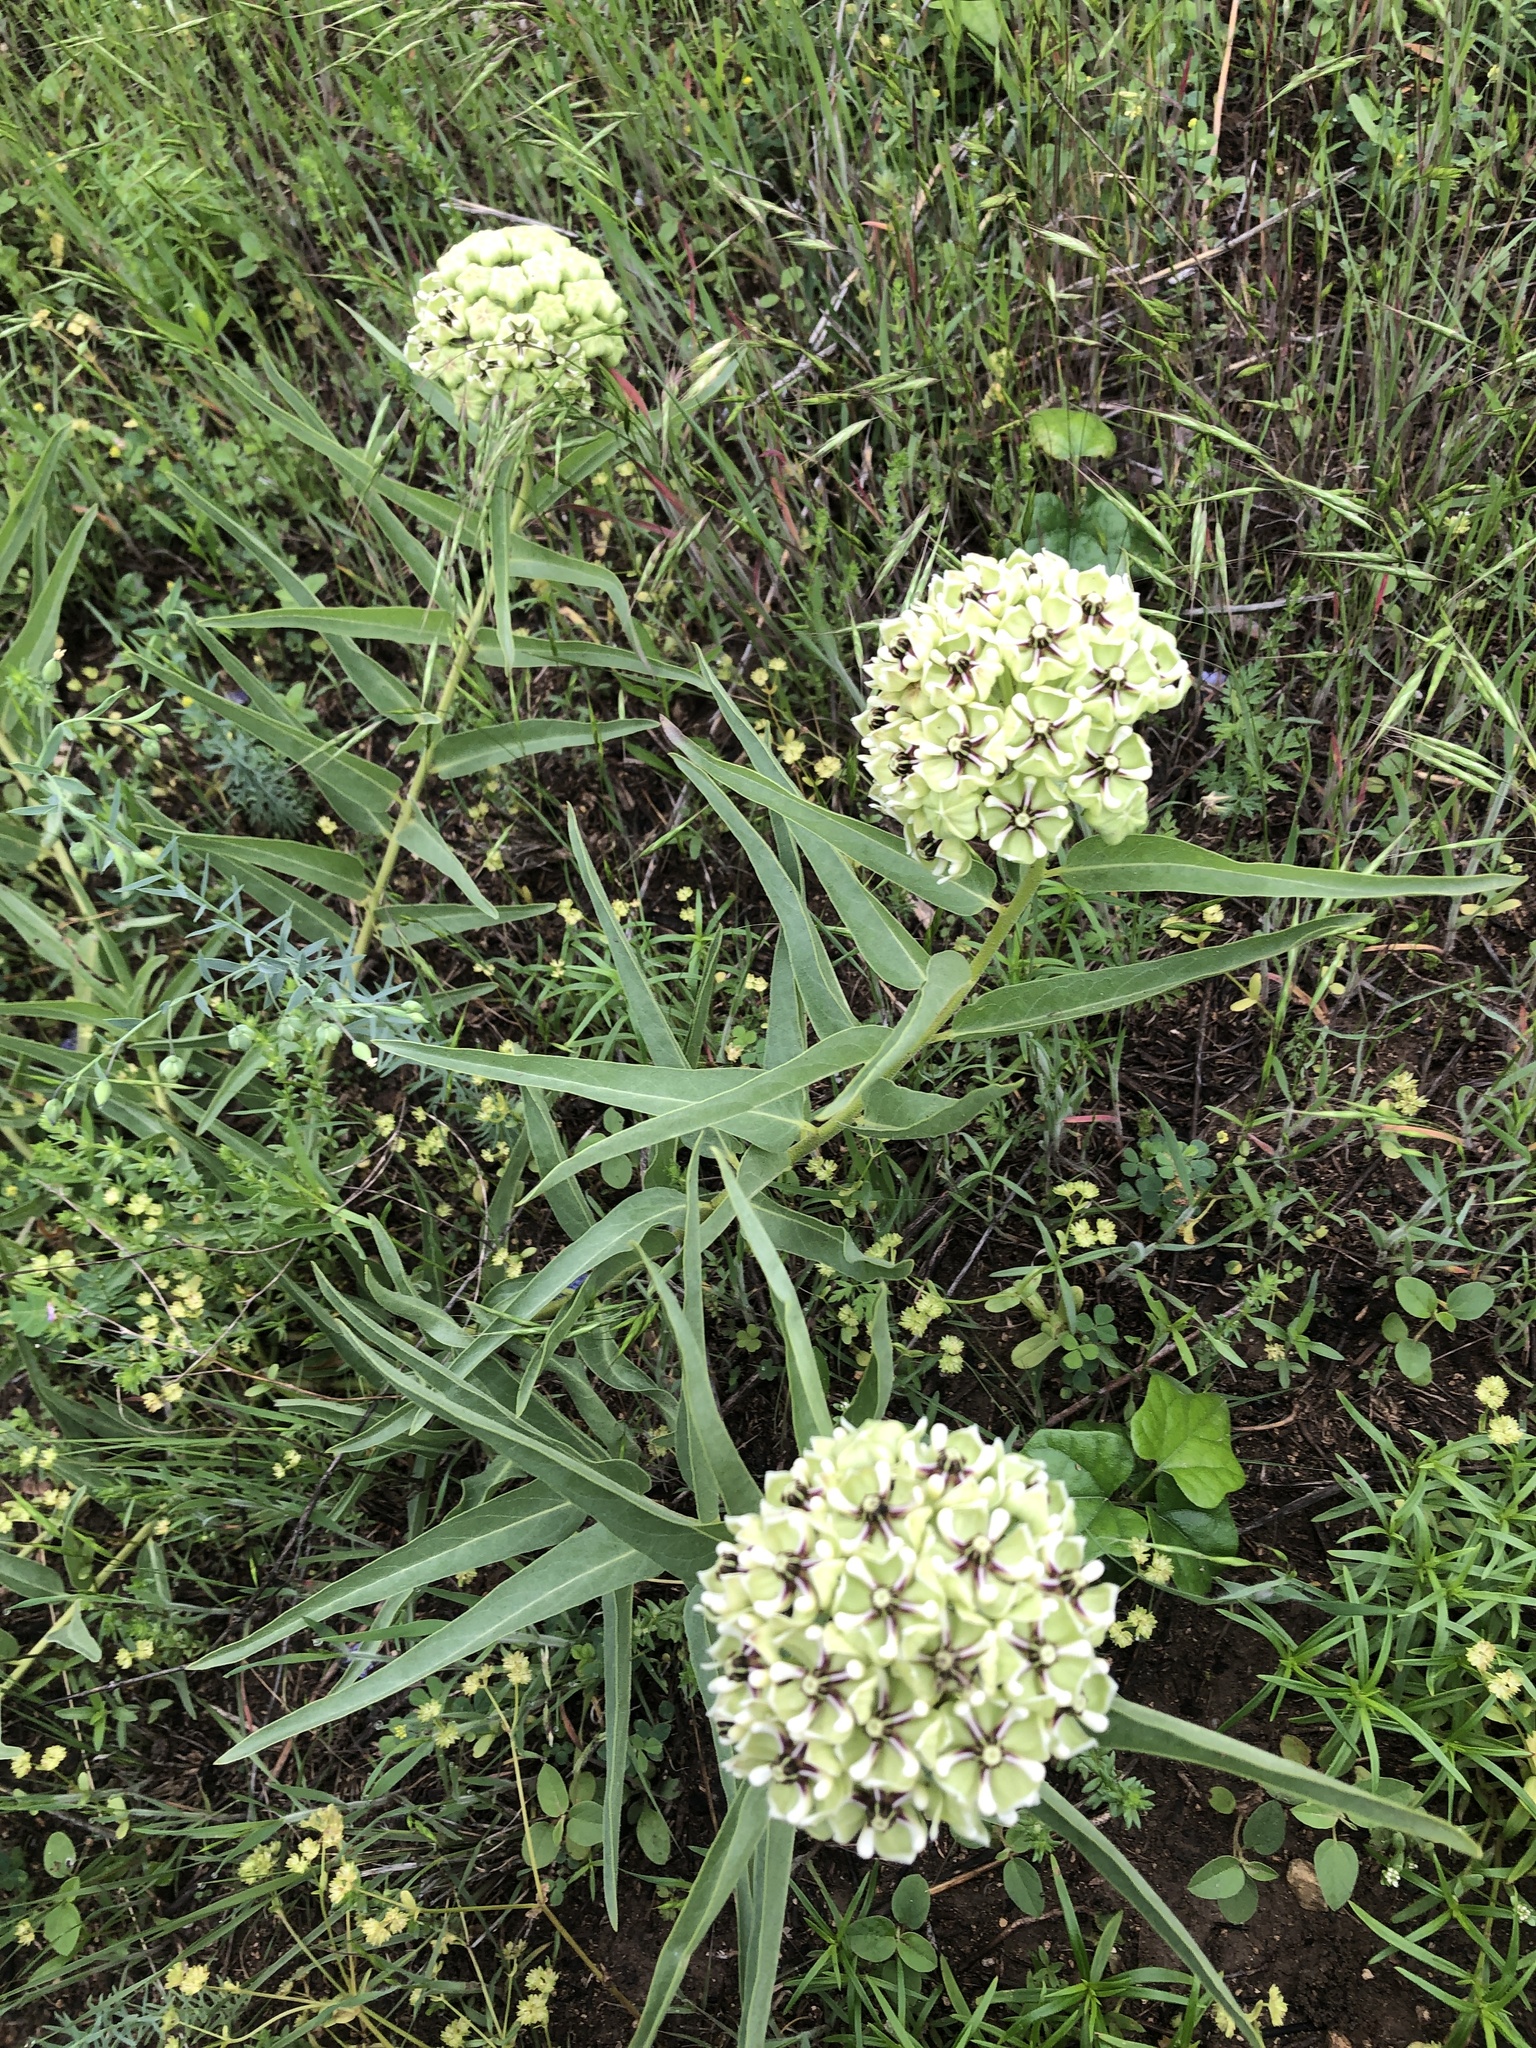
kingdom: Plantae
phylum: Tracheophyta
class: Magnoliopsida
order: Gentianales
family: Apocynaceae
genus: Asclepias
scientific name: Asclepias asperula
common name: Antelope horns
